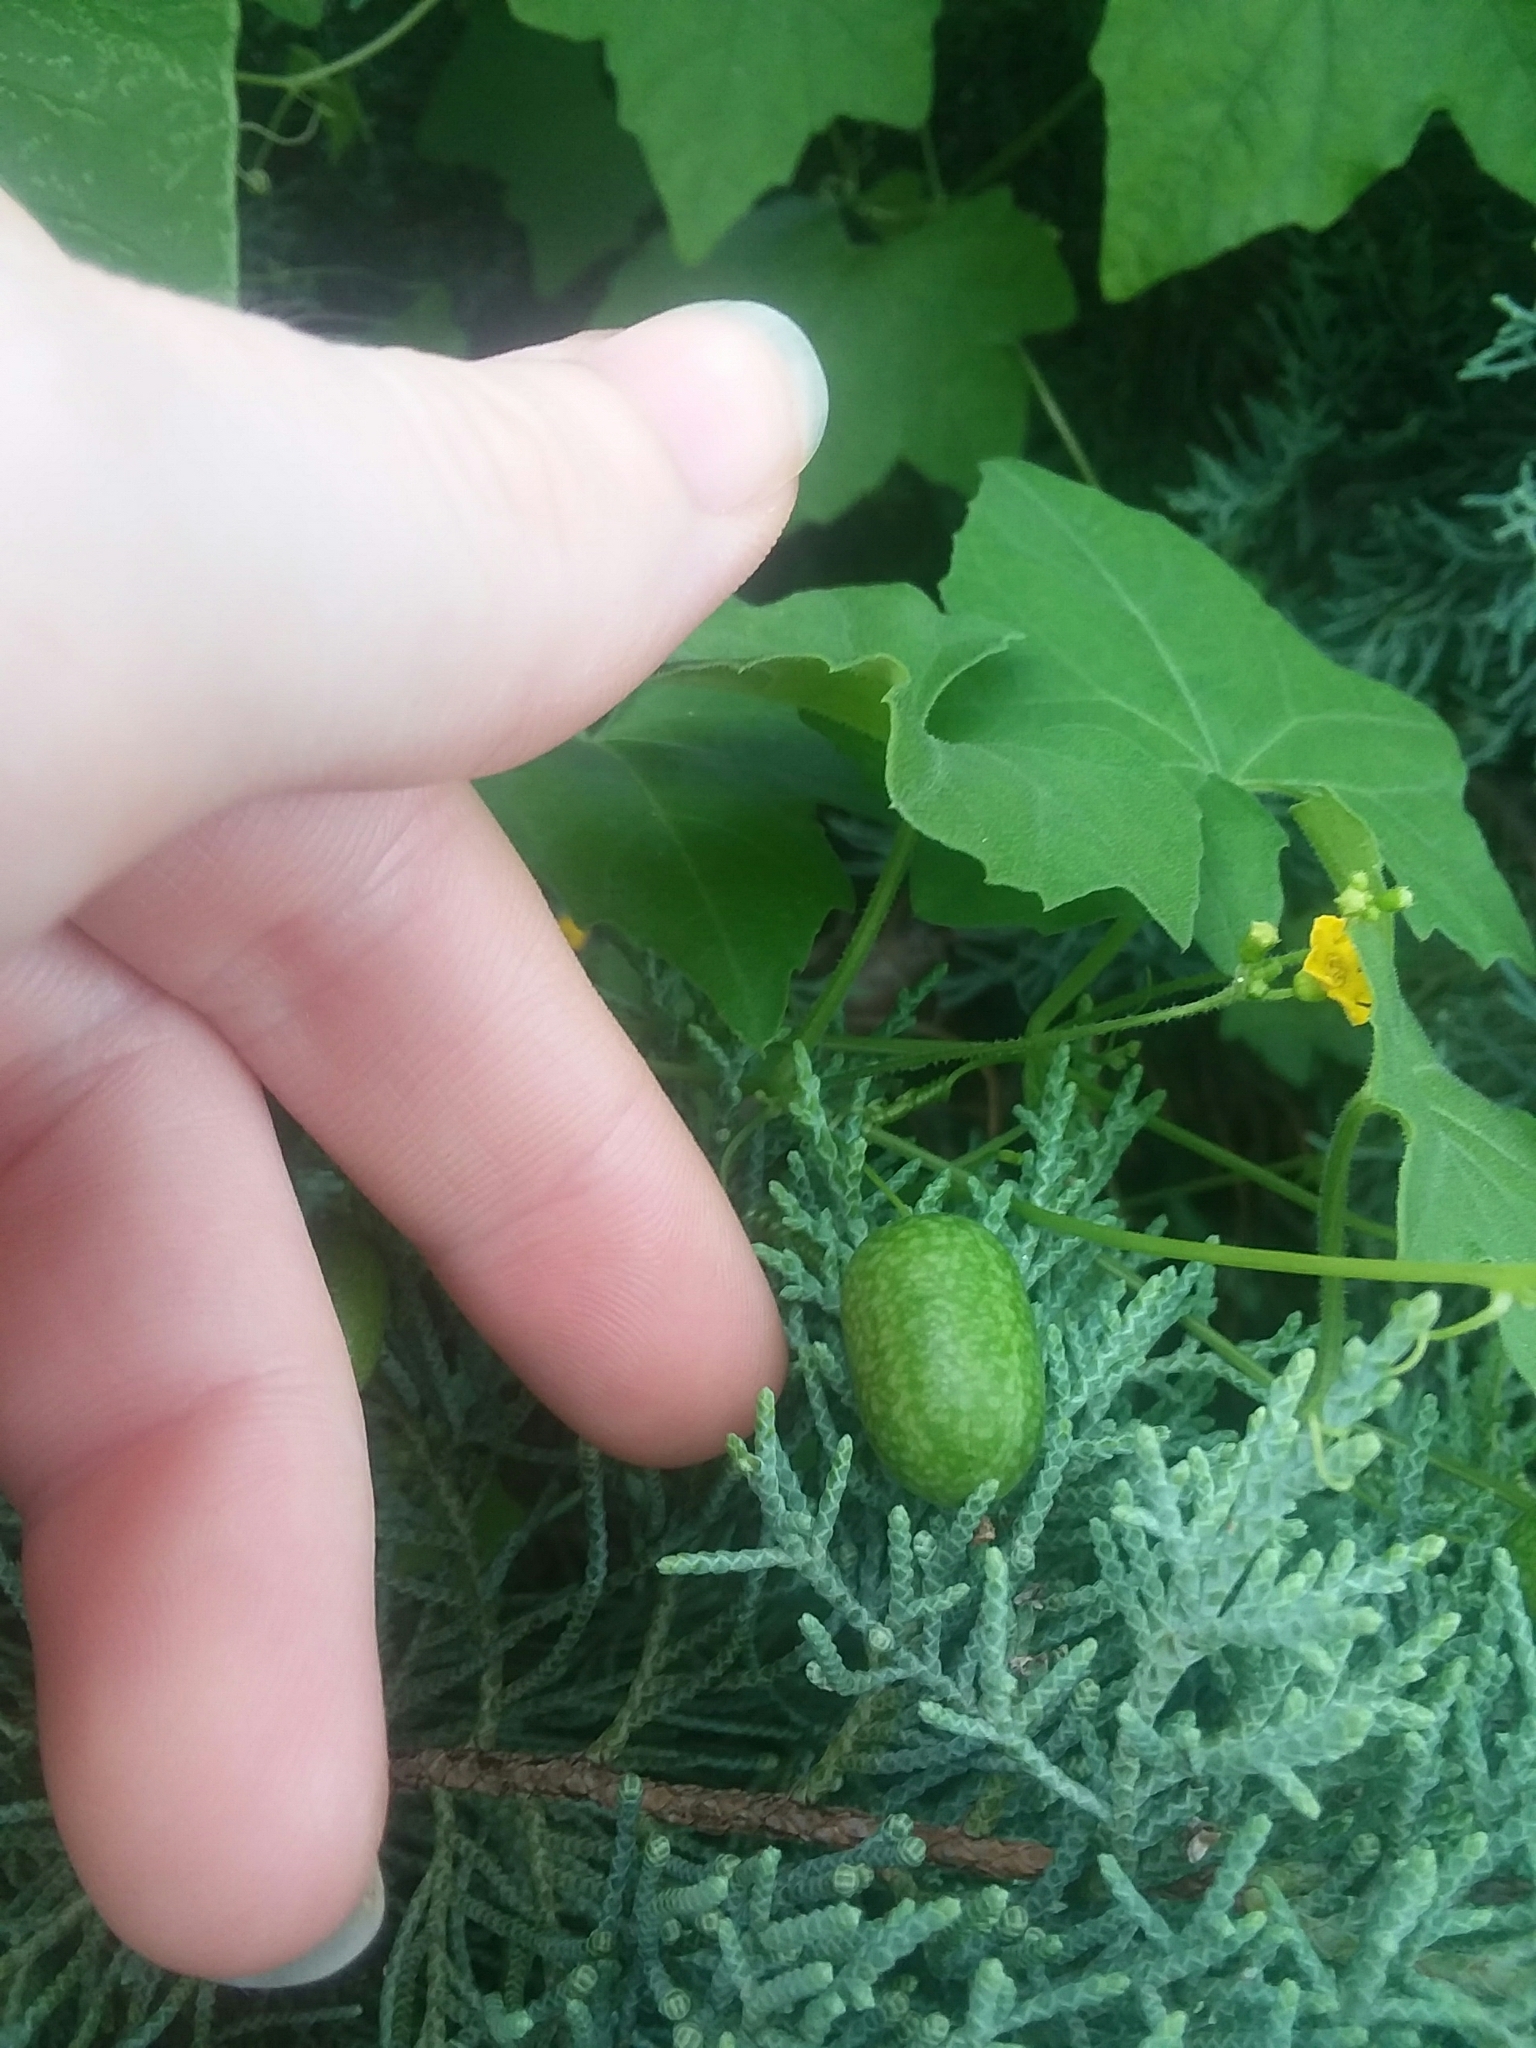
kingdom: Plantae
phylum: Tracheophyta
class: Magnoliopsida
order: Cucurbitales
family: Cucurbitaceae
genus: Melothria
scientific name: Melothria pendula
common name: Creeping-cucumber
